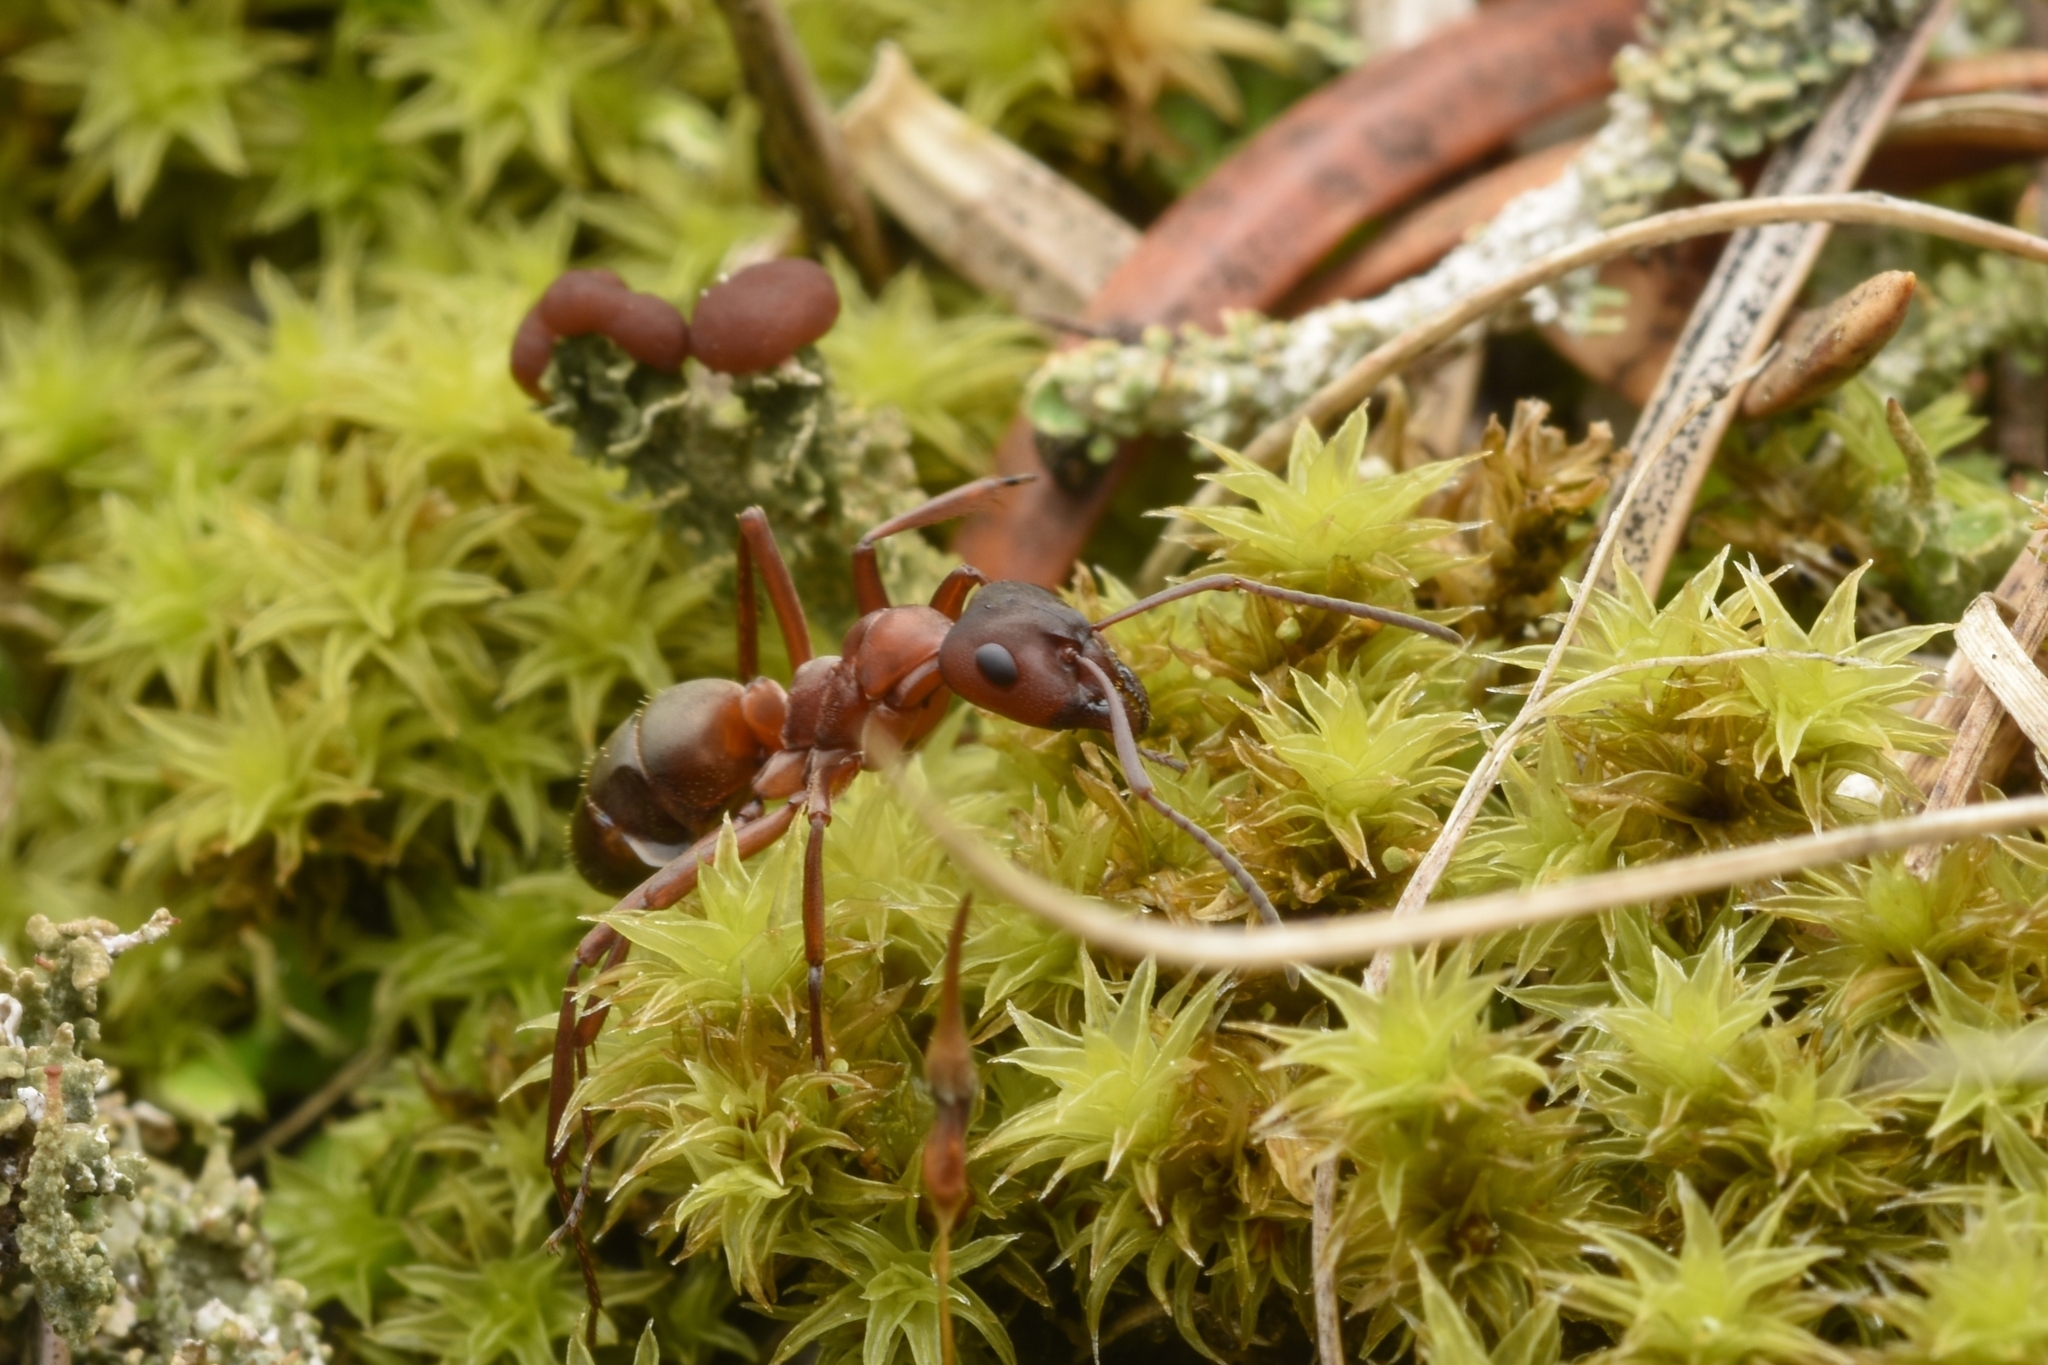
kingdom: Animalia
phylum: Arthropoda
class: Insecta
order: Hymenoptera
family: Formicidae
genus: Formica
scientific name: Formica sanguinea
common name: Blood-red ant
